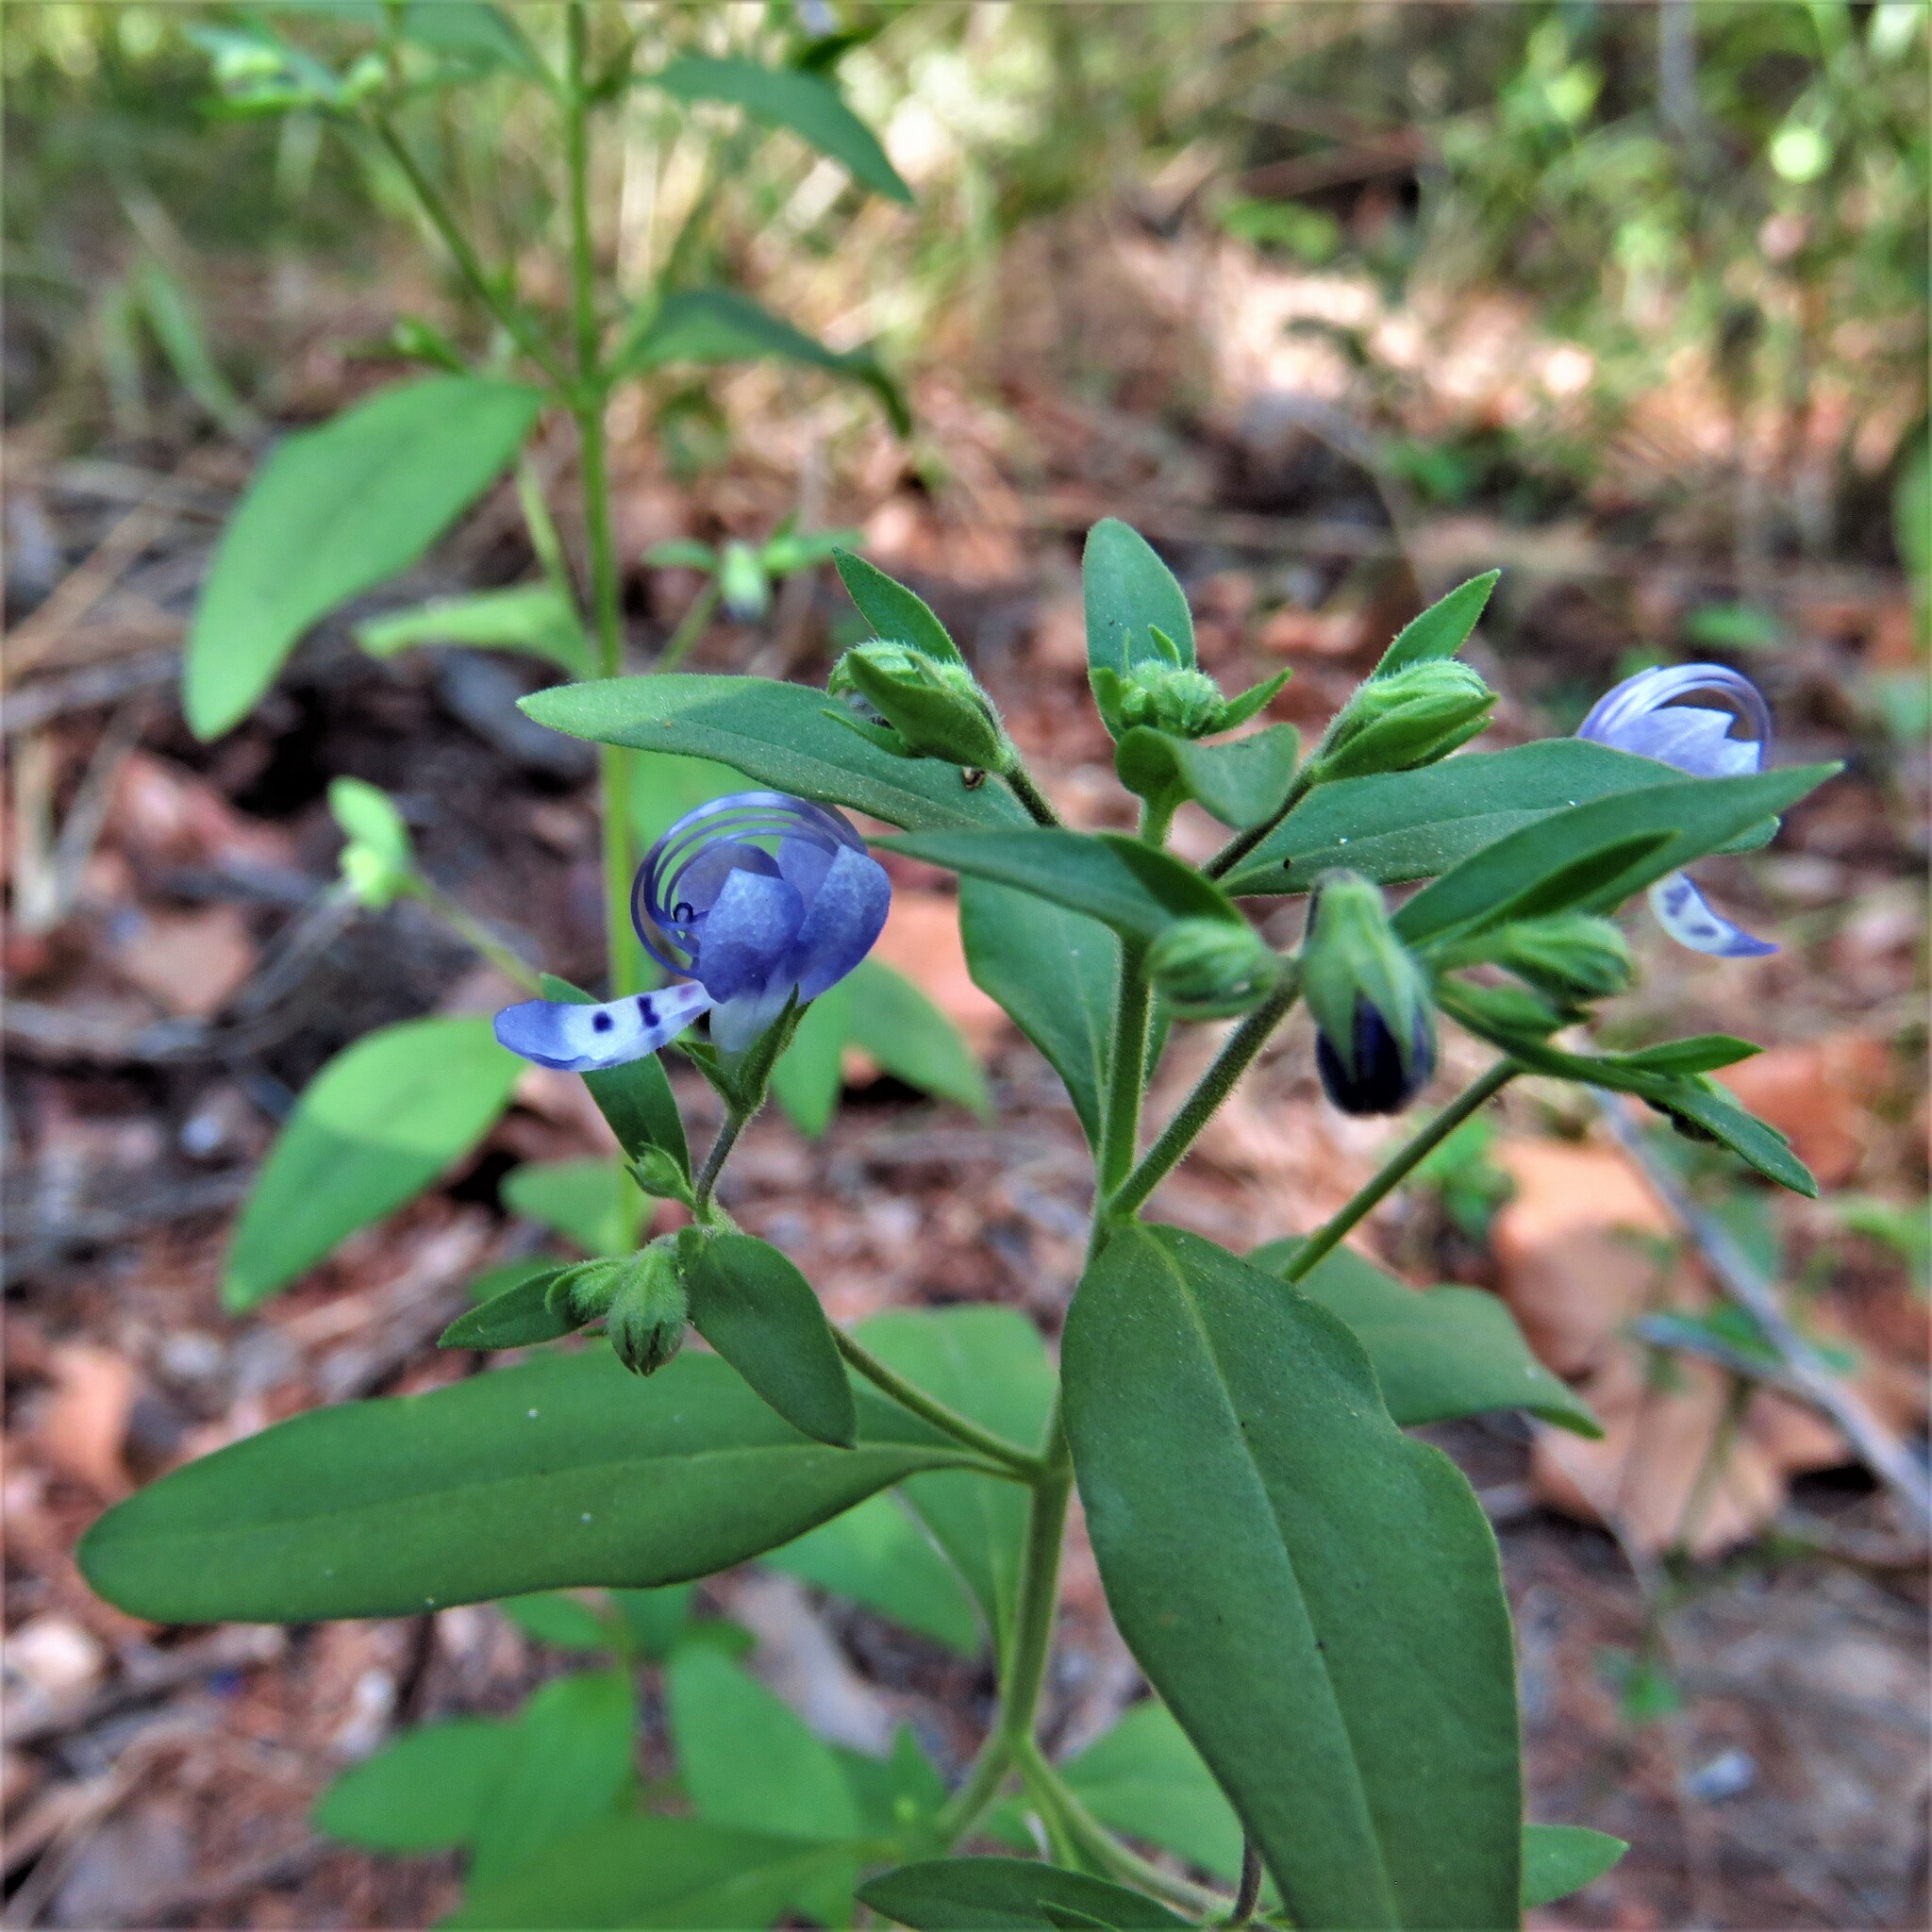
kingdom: Plantae
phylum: Tracheophyta
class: Magnoliopsida
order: Lamiales
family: Lamiaceae
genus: Trichostema
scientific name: Trichostema dichotomum
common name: Bastard pennyroyal
